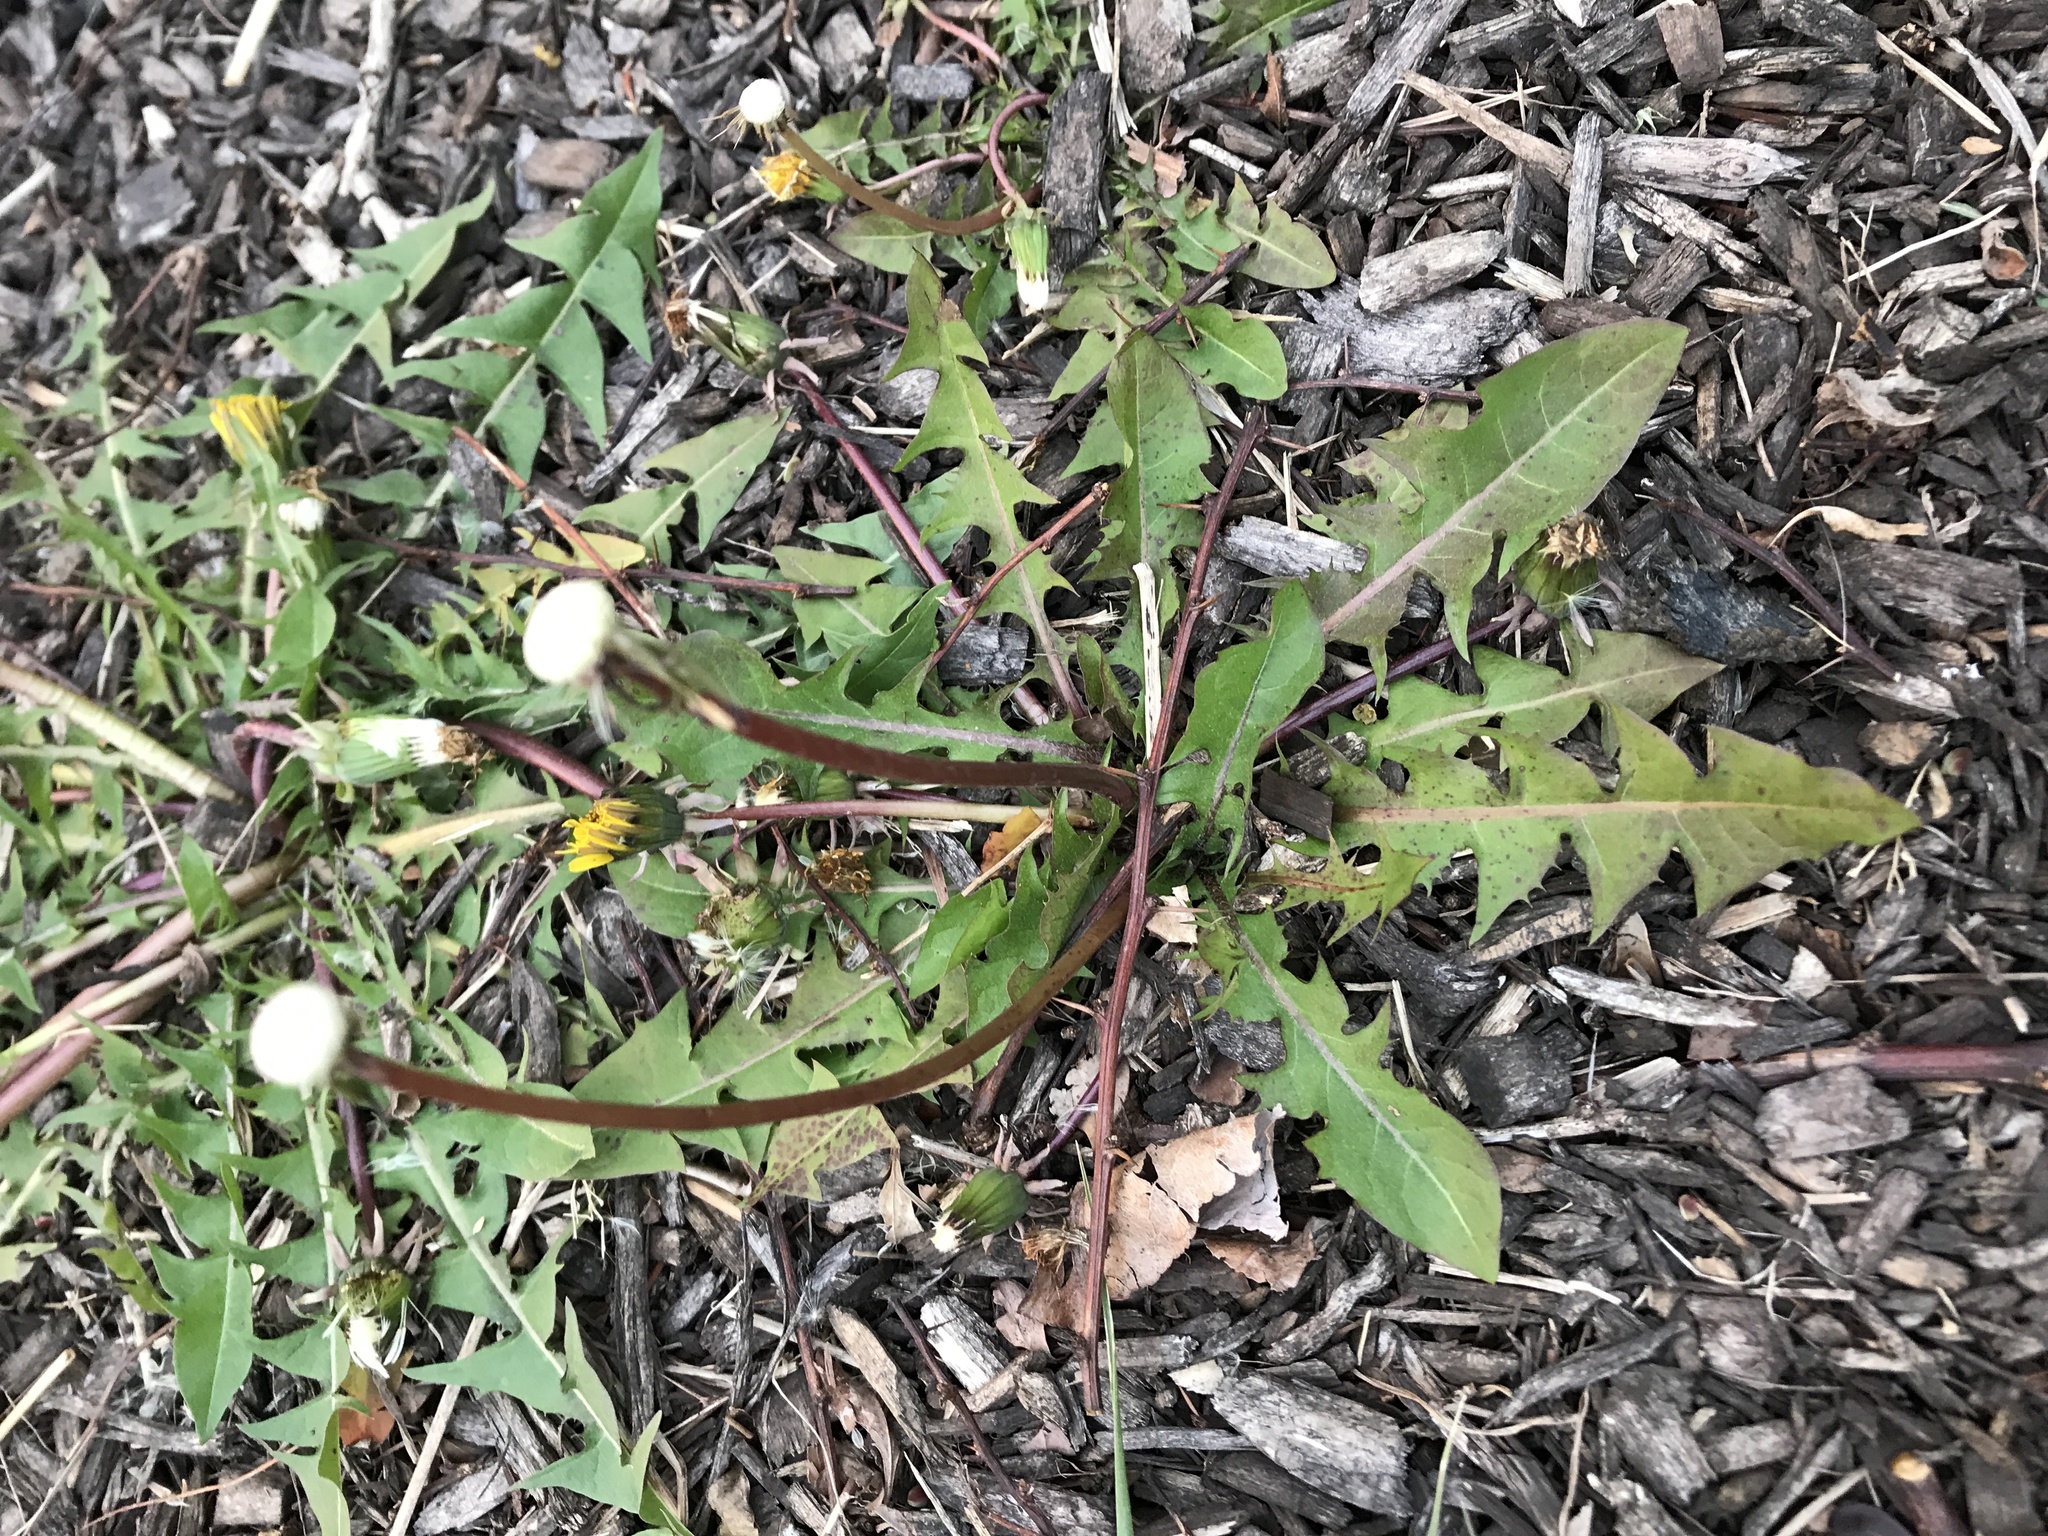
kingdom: Plantae
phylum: Tracheophyta
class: Magnoliopsida
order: Asterales
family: Asteraceae
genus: Taraxacum
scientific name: Taraxacum officinale
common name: Common dandelion
